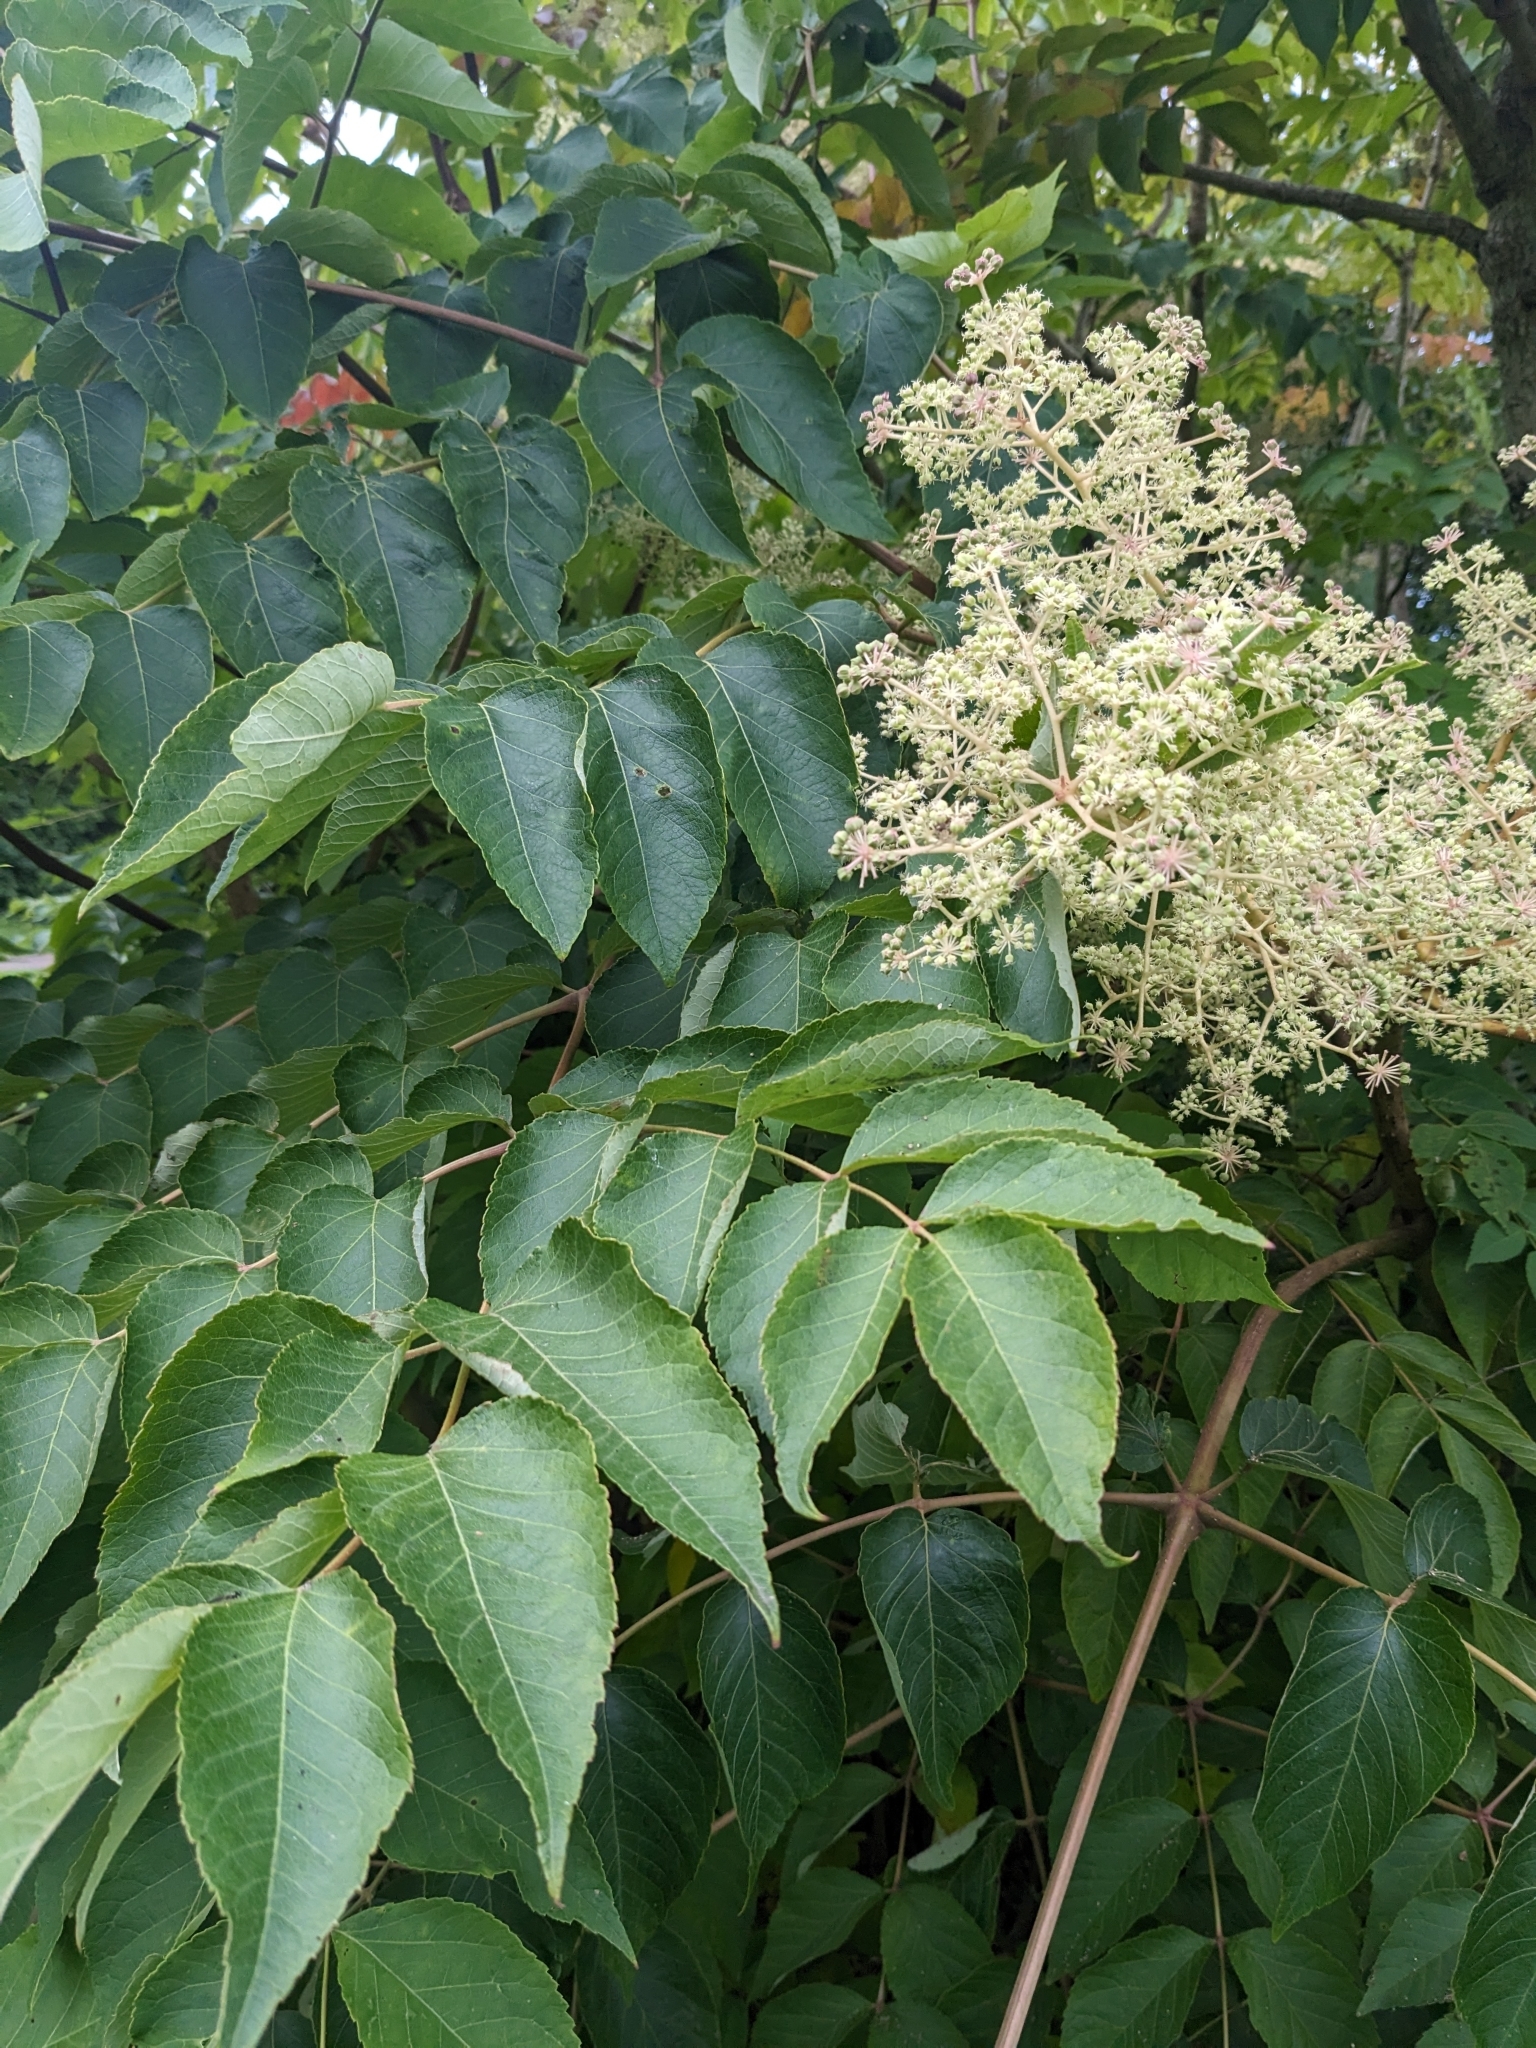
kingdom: Plantae
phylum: Tracheophyta
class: Magnoliopsida
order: Apiales
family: Araliaceae
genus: Aralia
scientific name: Aralia elata
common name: Japanese angelica-tree
